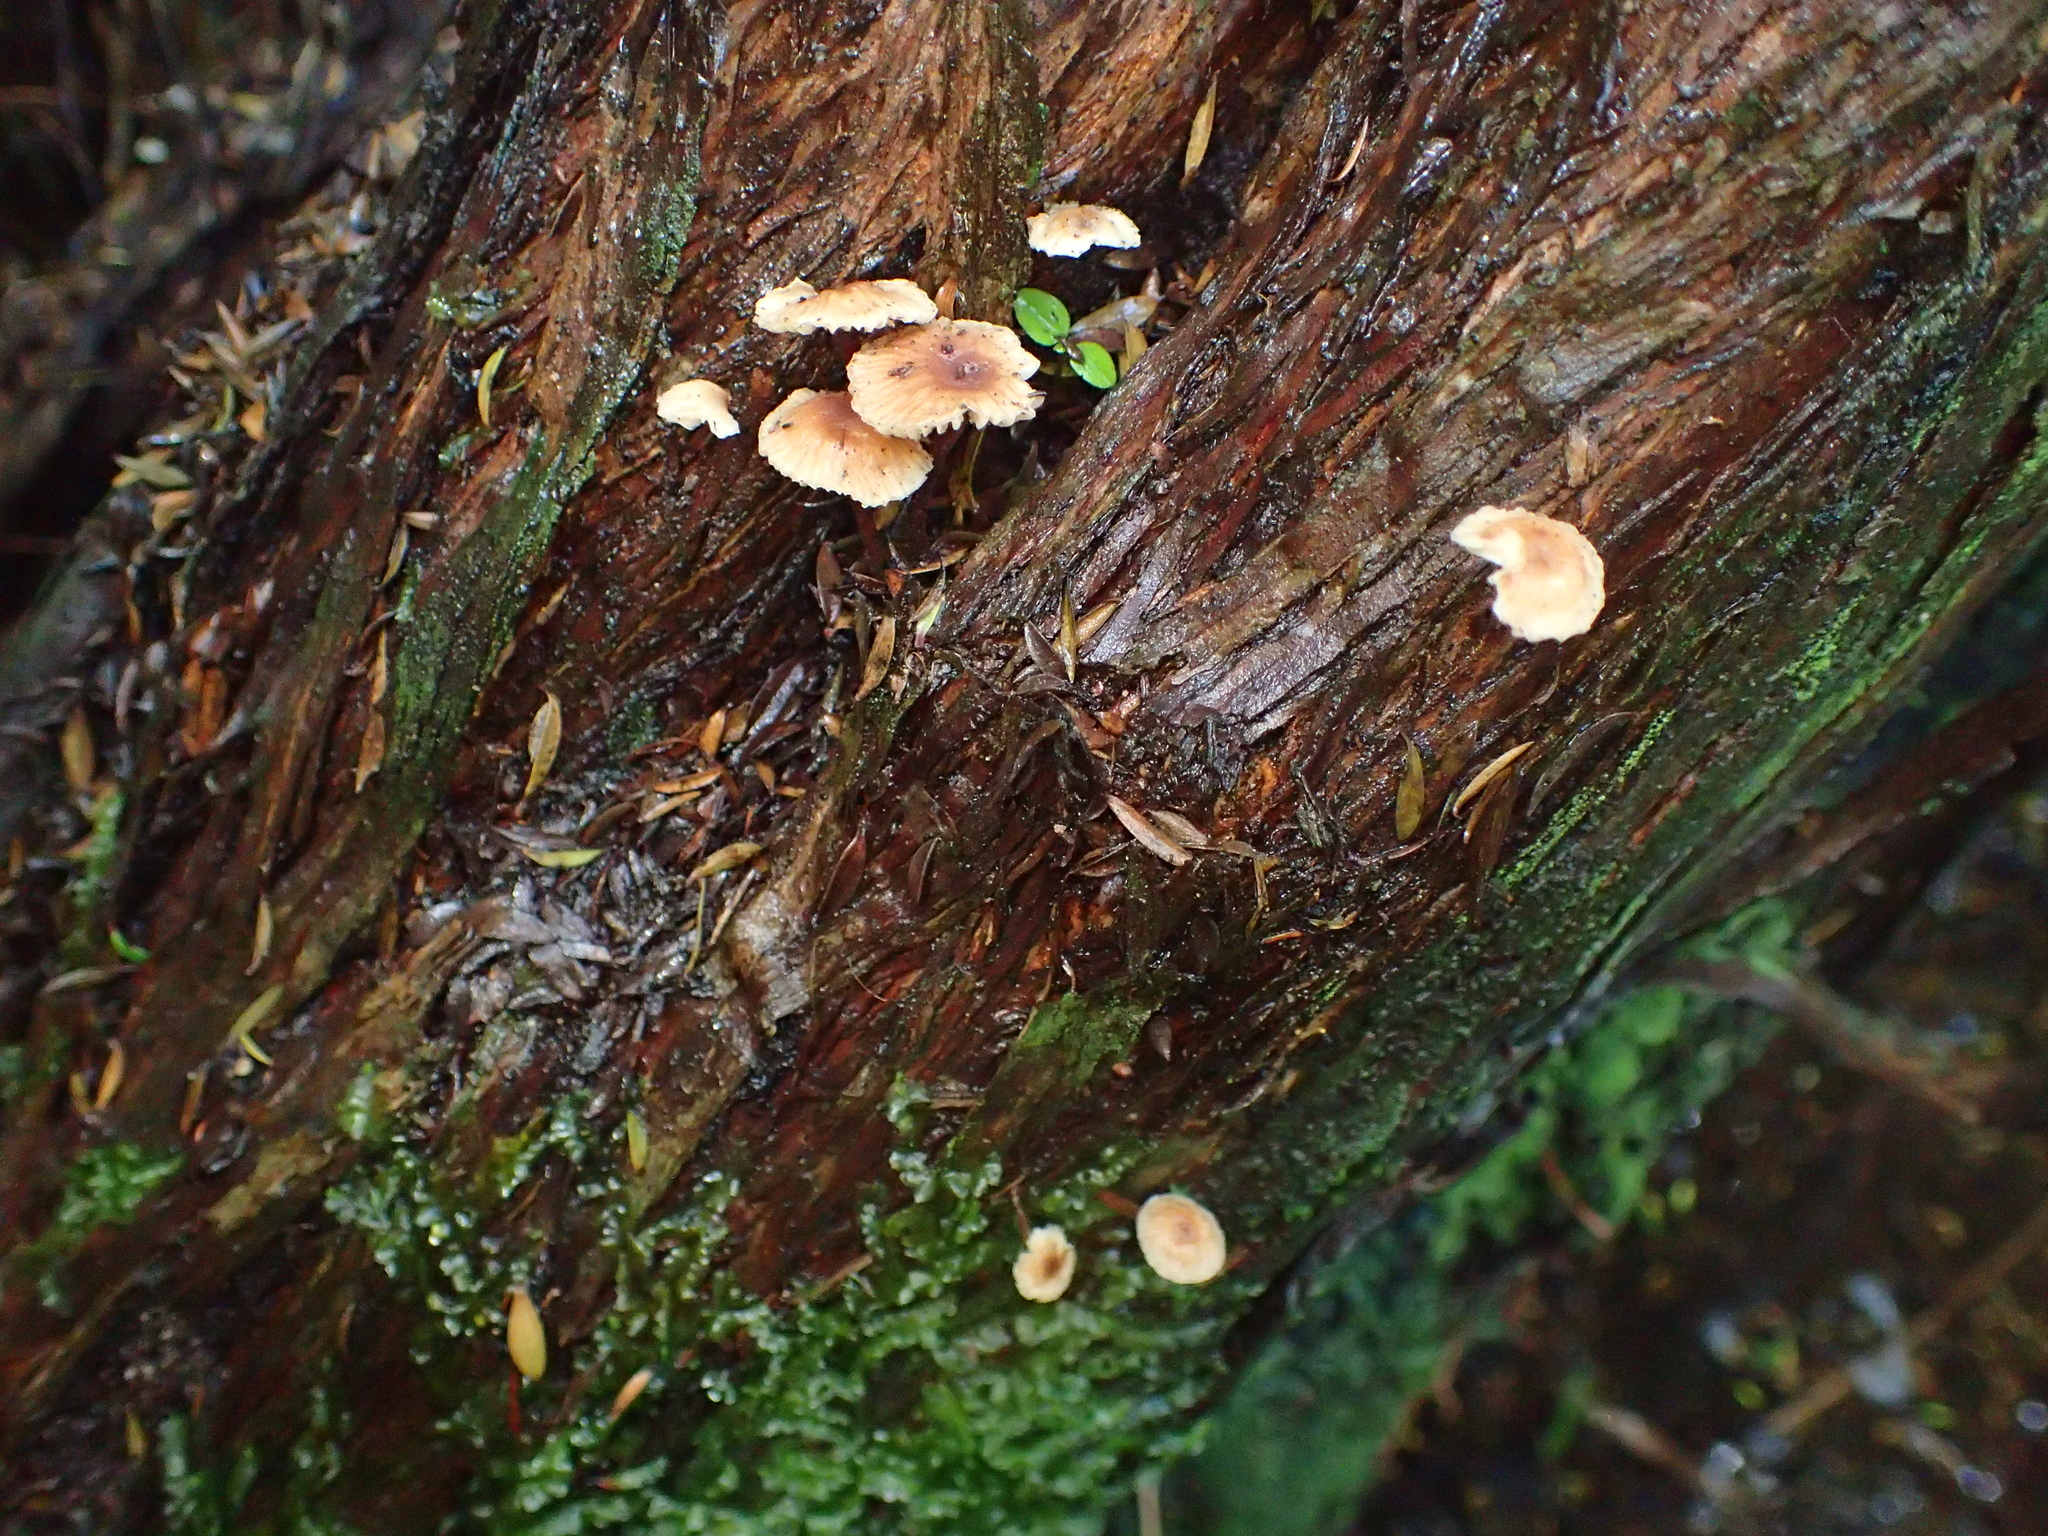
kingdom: Fungi
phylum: Basidiomycota
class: Agaricomycetes
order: Agaricales
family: Omphalotaceae
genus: Mycetinis
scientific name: Mycetinis curraniae
